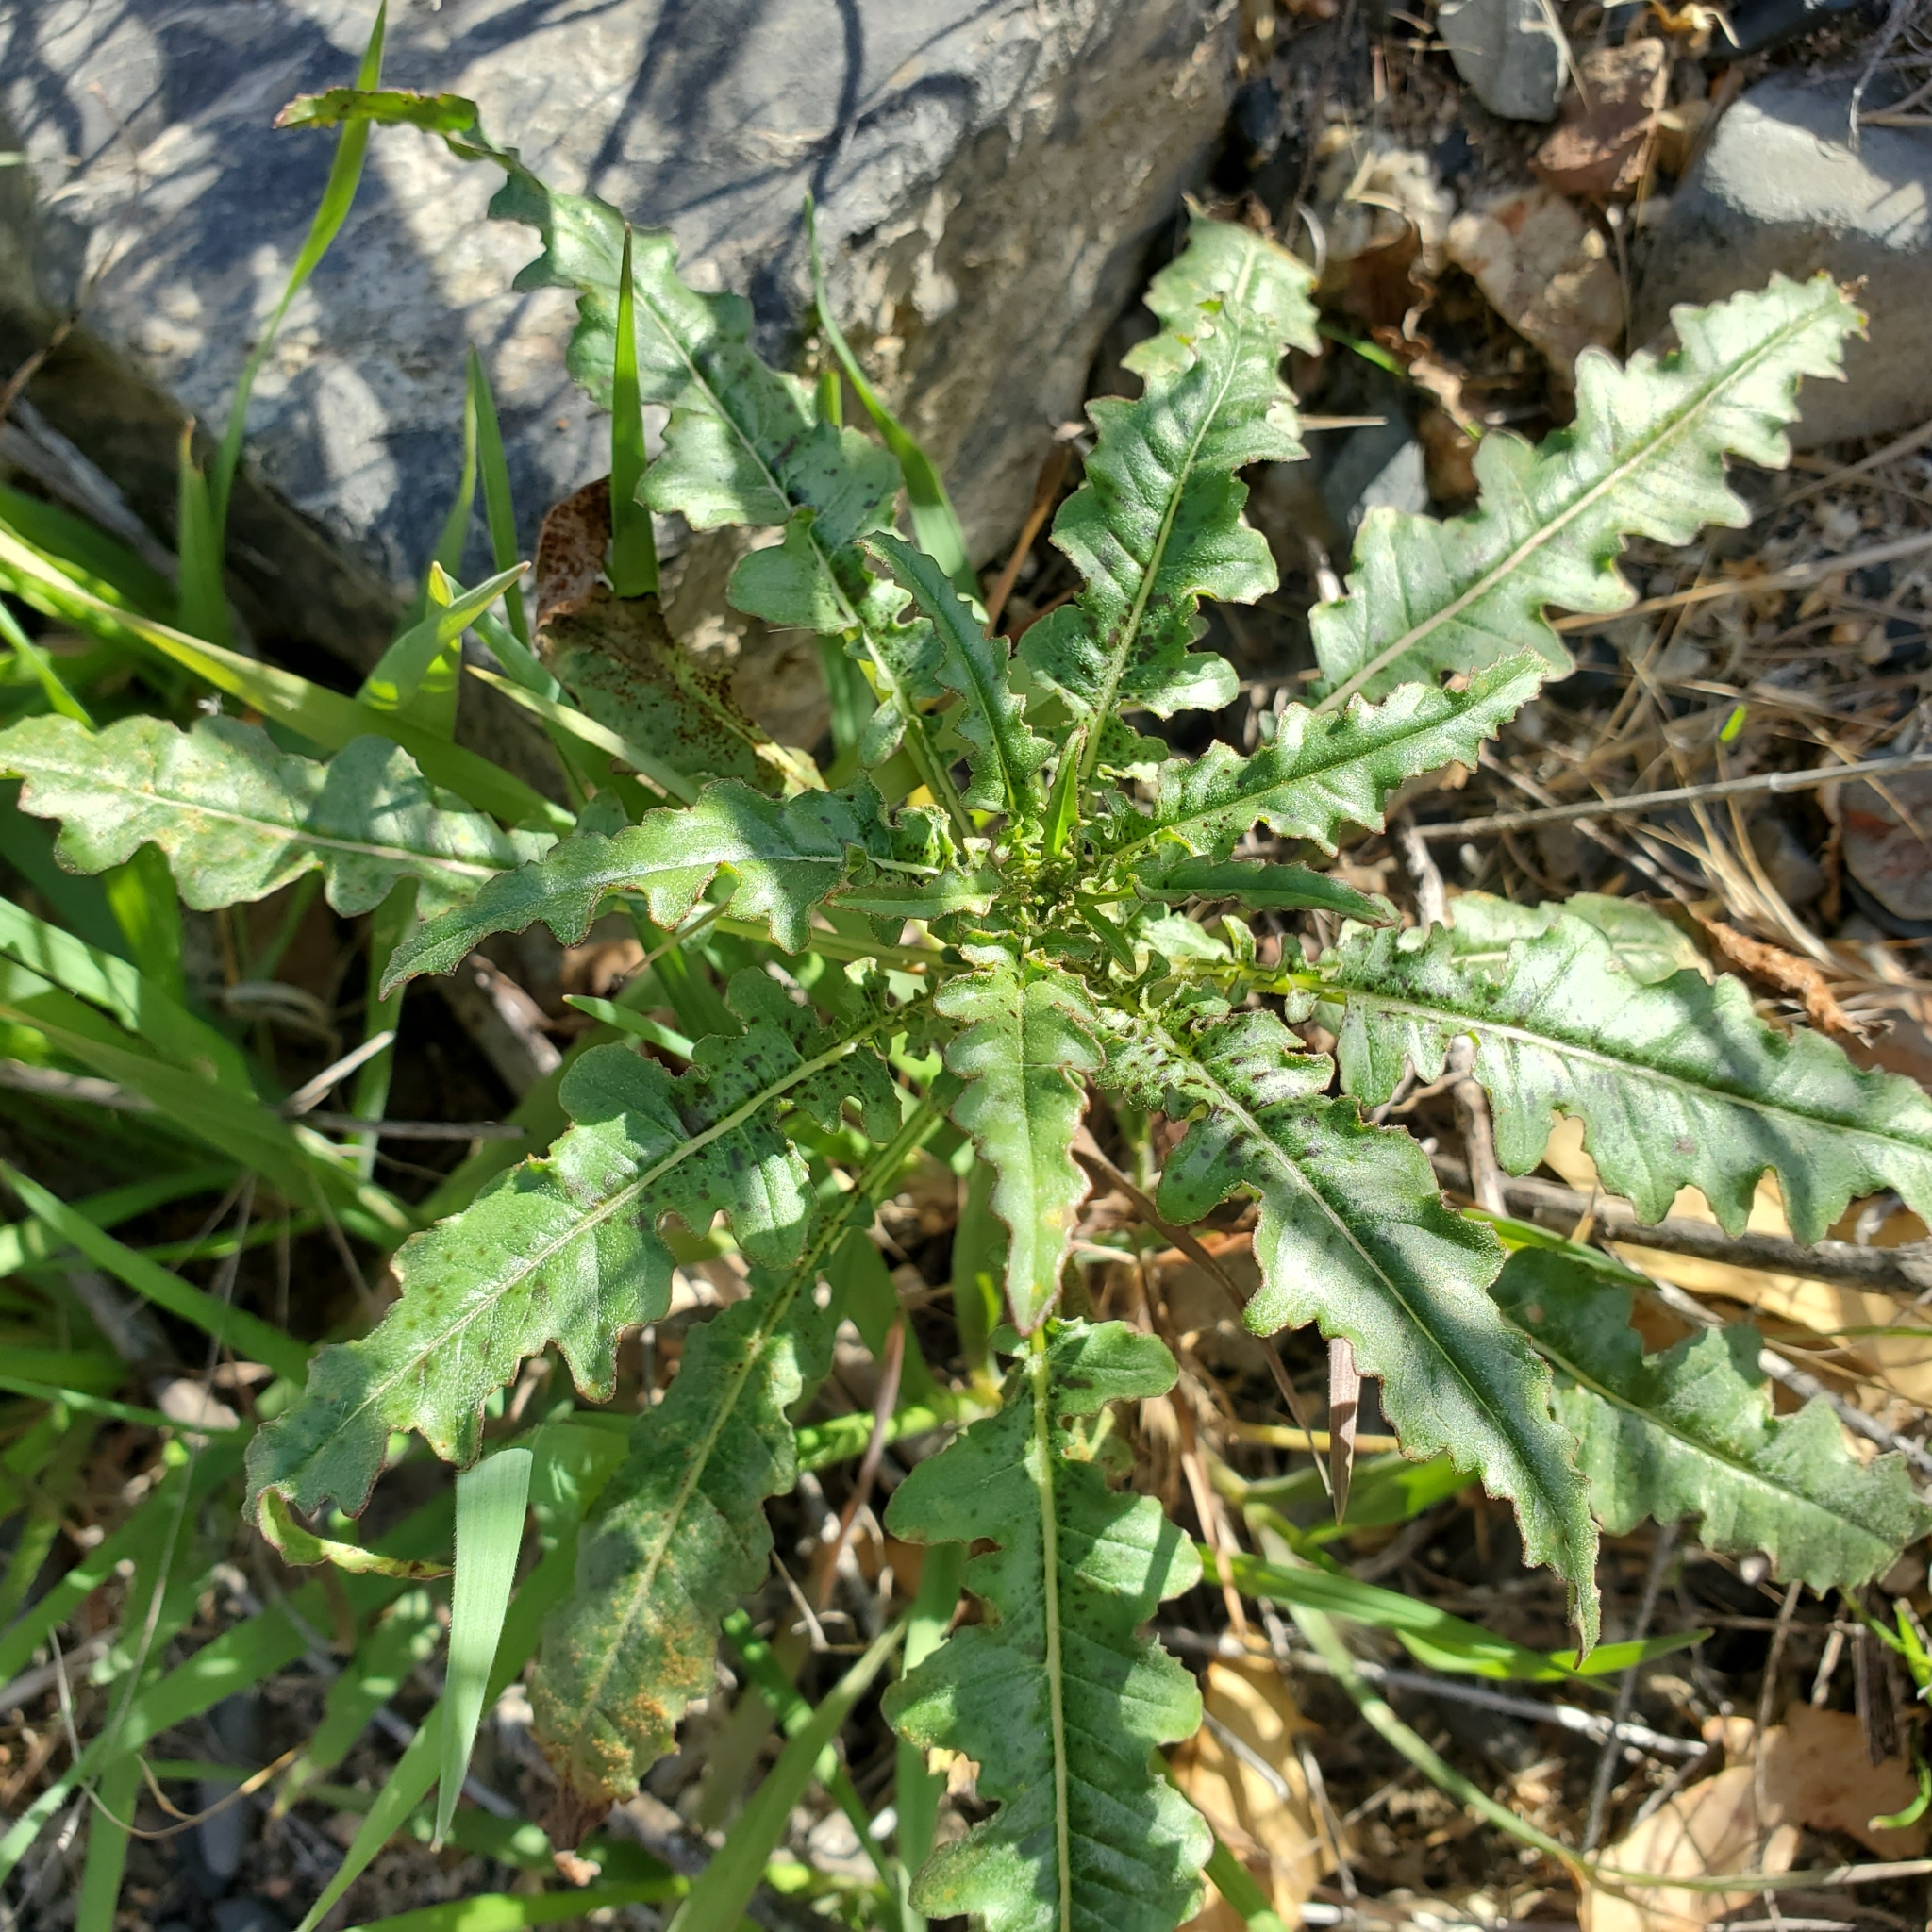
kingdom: Plantae
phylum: Tracheophyta
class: Magnoliopsida
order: Myrtales
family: Onagraceae
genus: Eulobus
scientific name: Eulobus californicus
